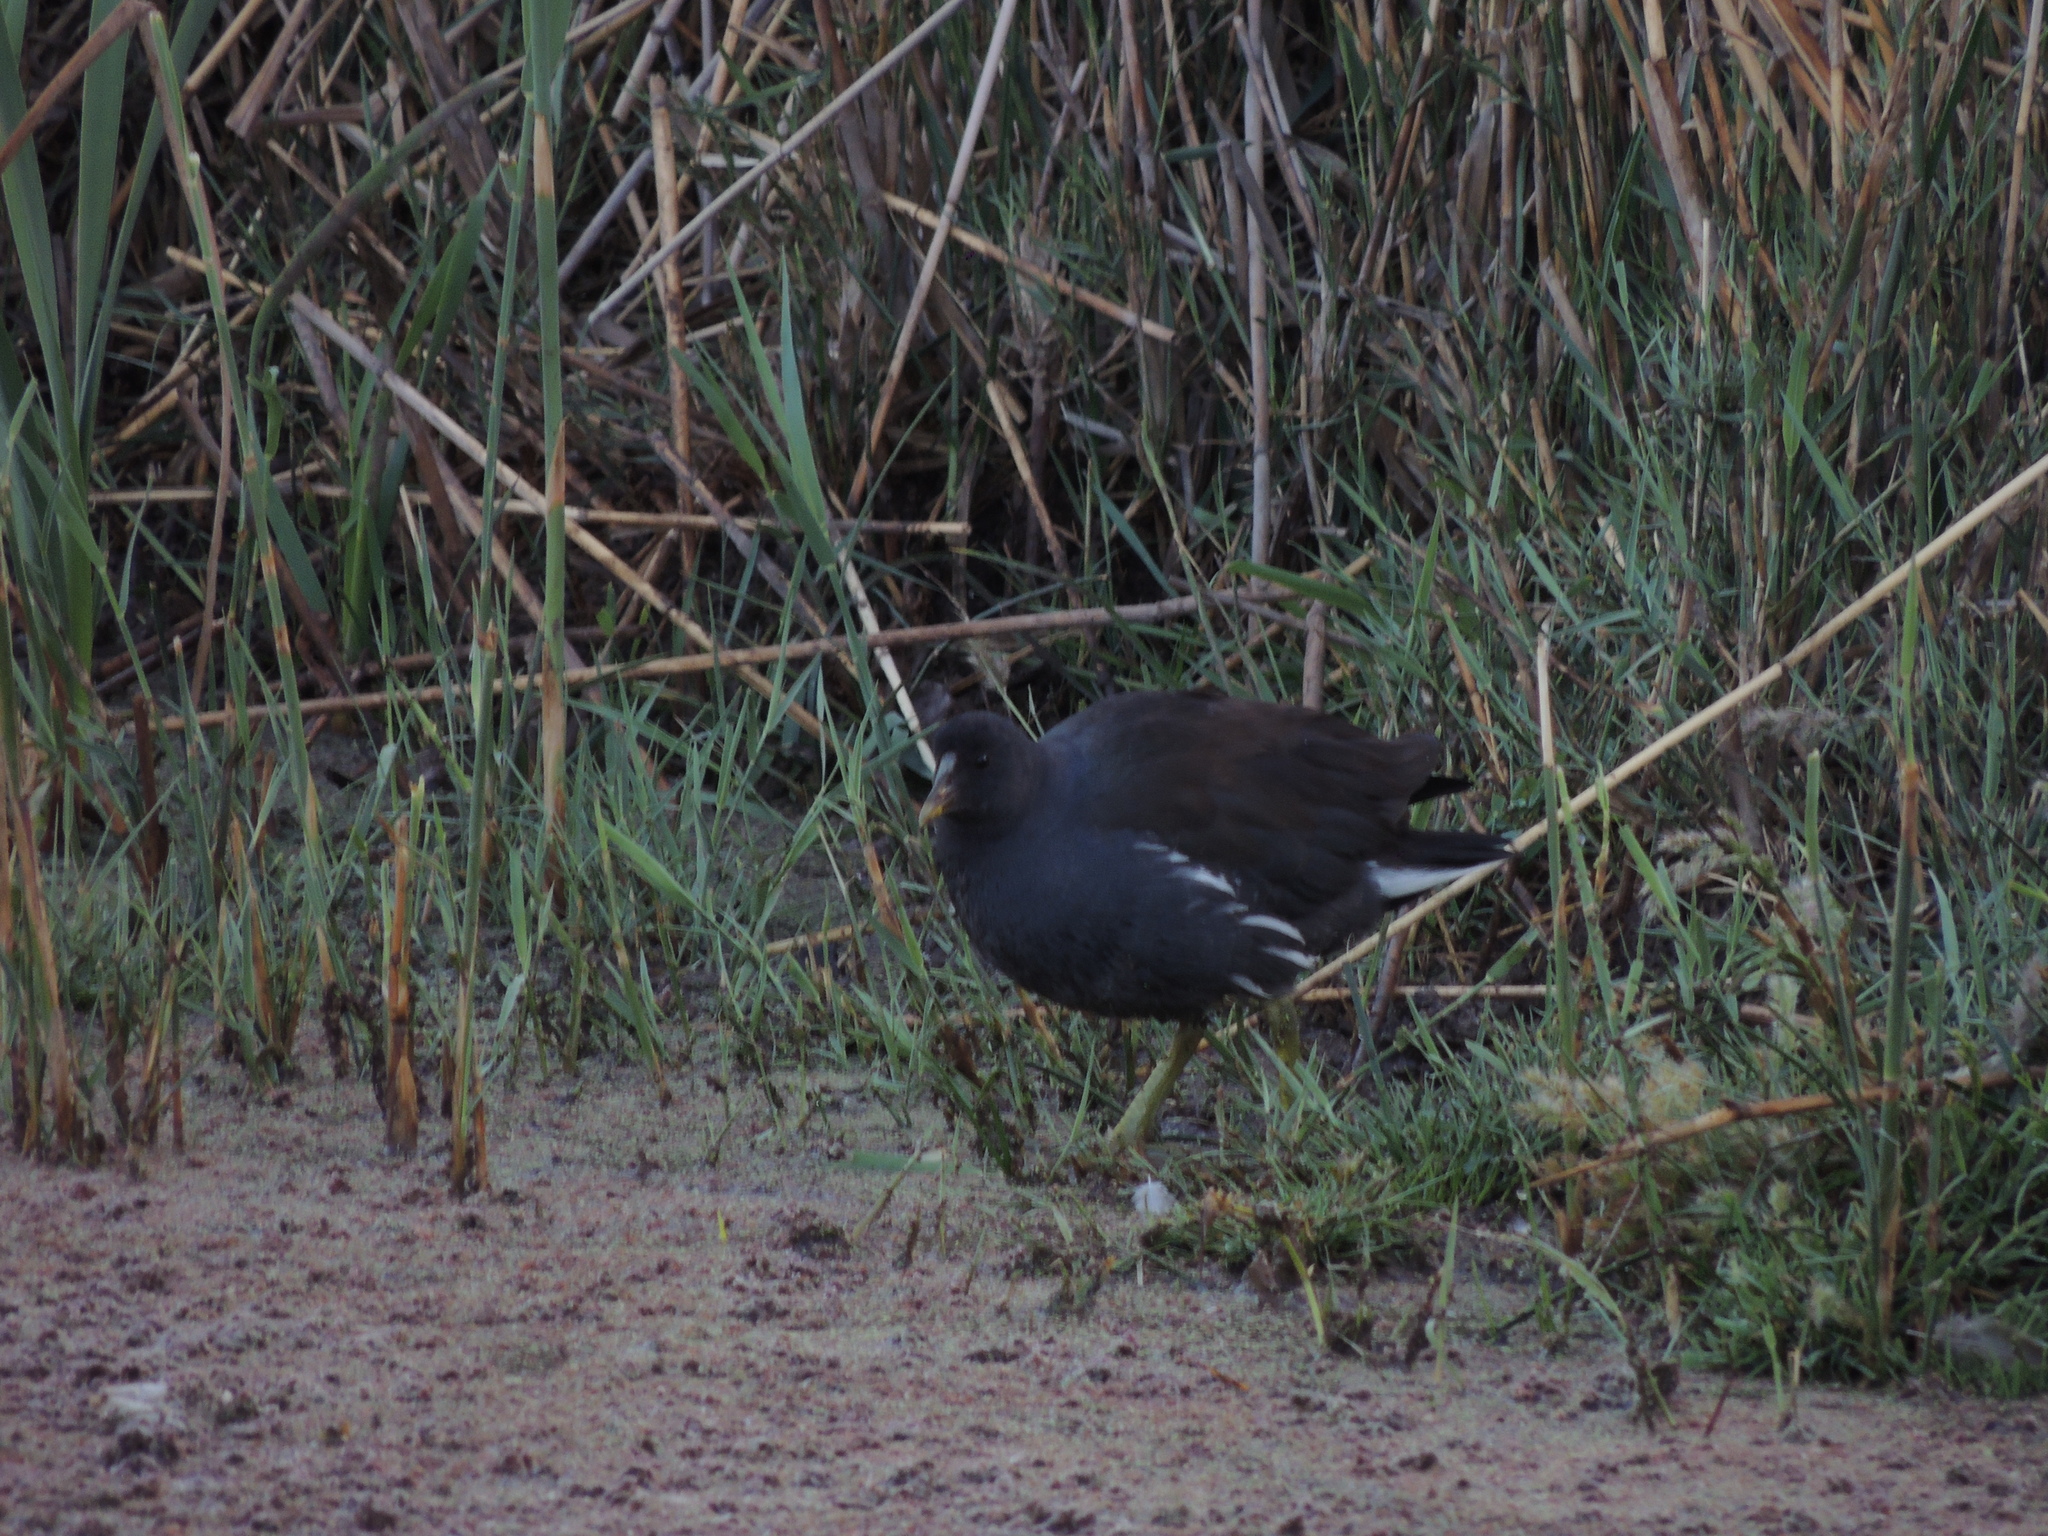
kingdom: Animalia
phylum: Chordata
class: Aves
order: Gruiformes
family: Rallidae
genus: Gallinula
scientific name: Gallinula chloropus
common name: Common moorhen
